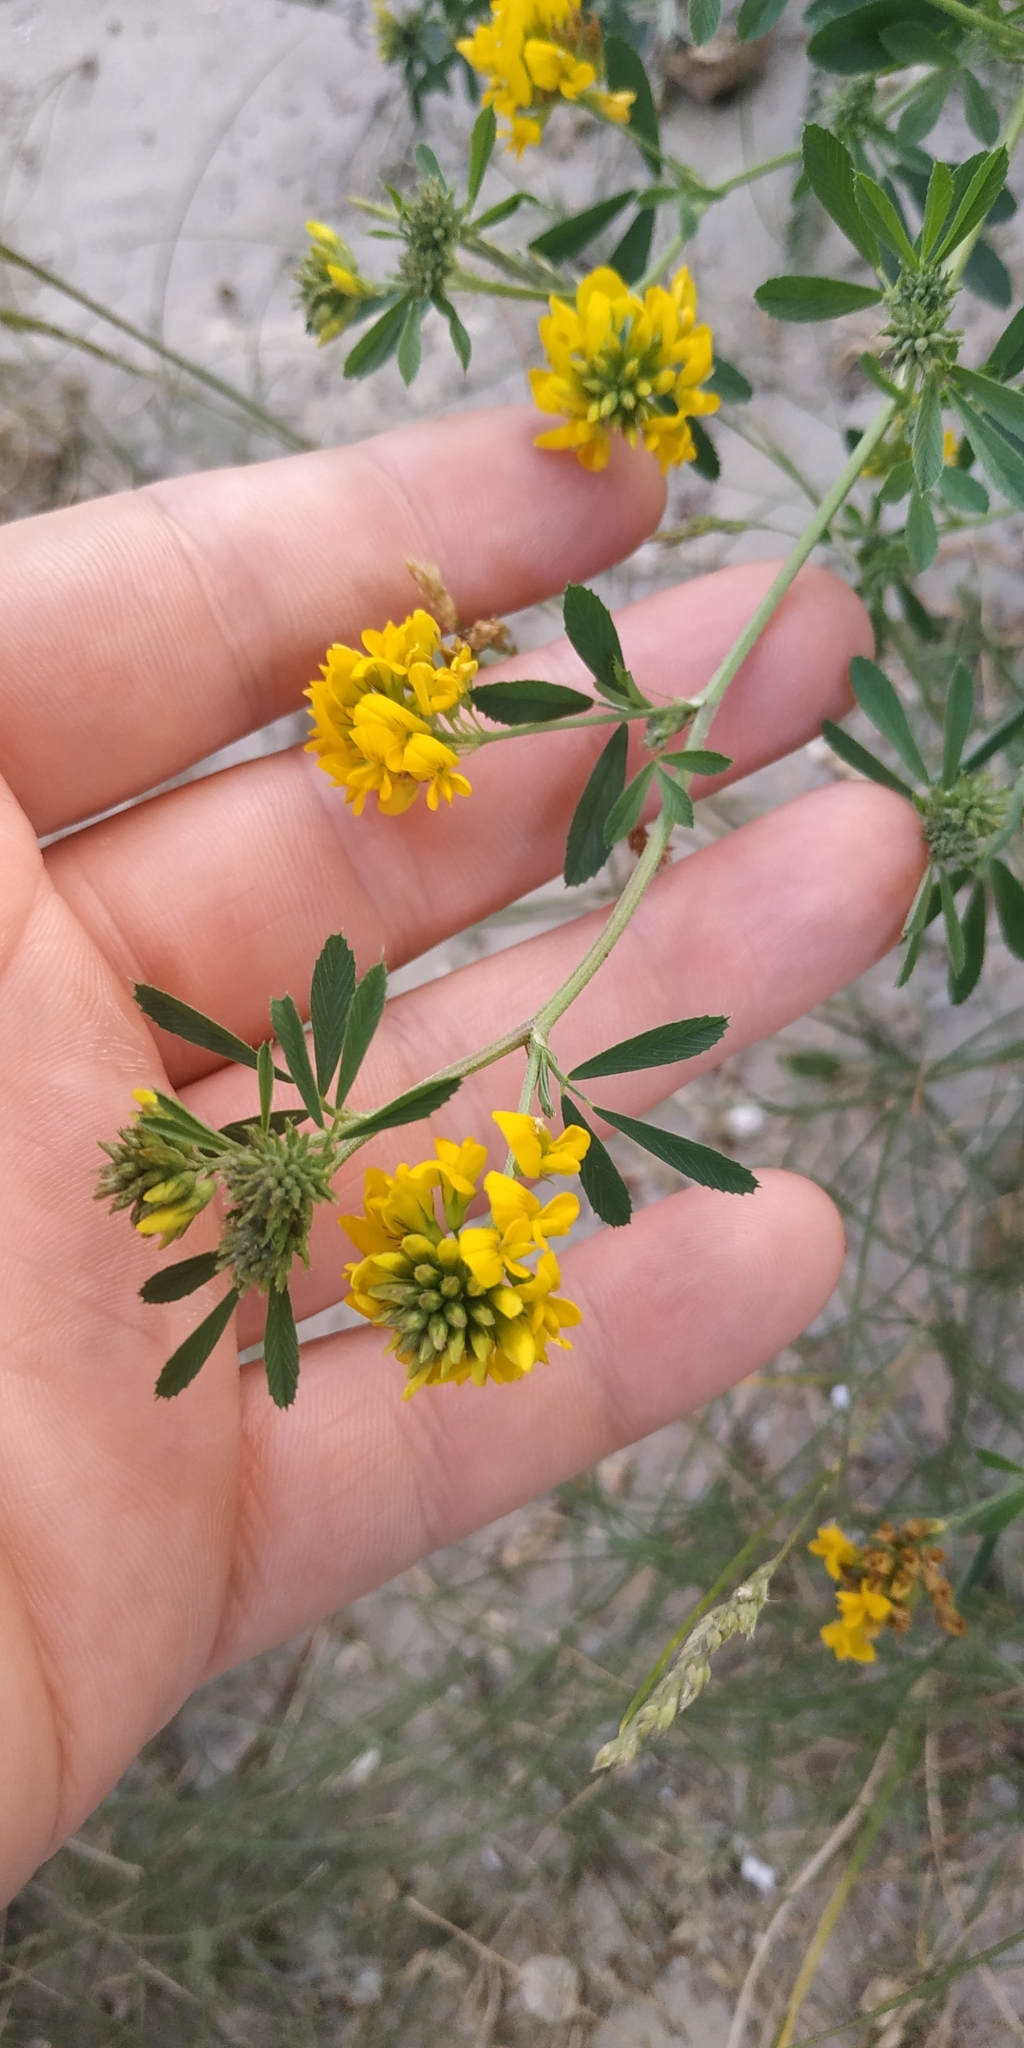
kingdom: Plantae
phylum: Tracheophyta
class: Magnoliopsida
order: Fabales
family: Fabaceae
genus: Medicago
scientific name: Medicago falcata
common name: Sickle medick
